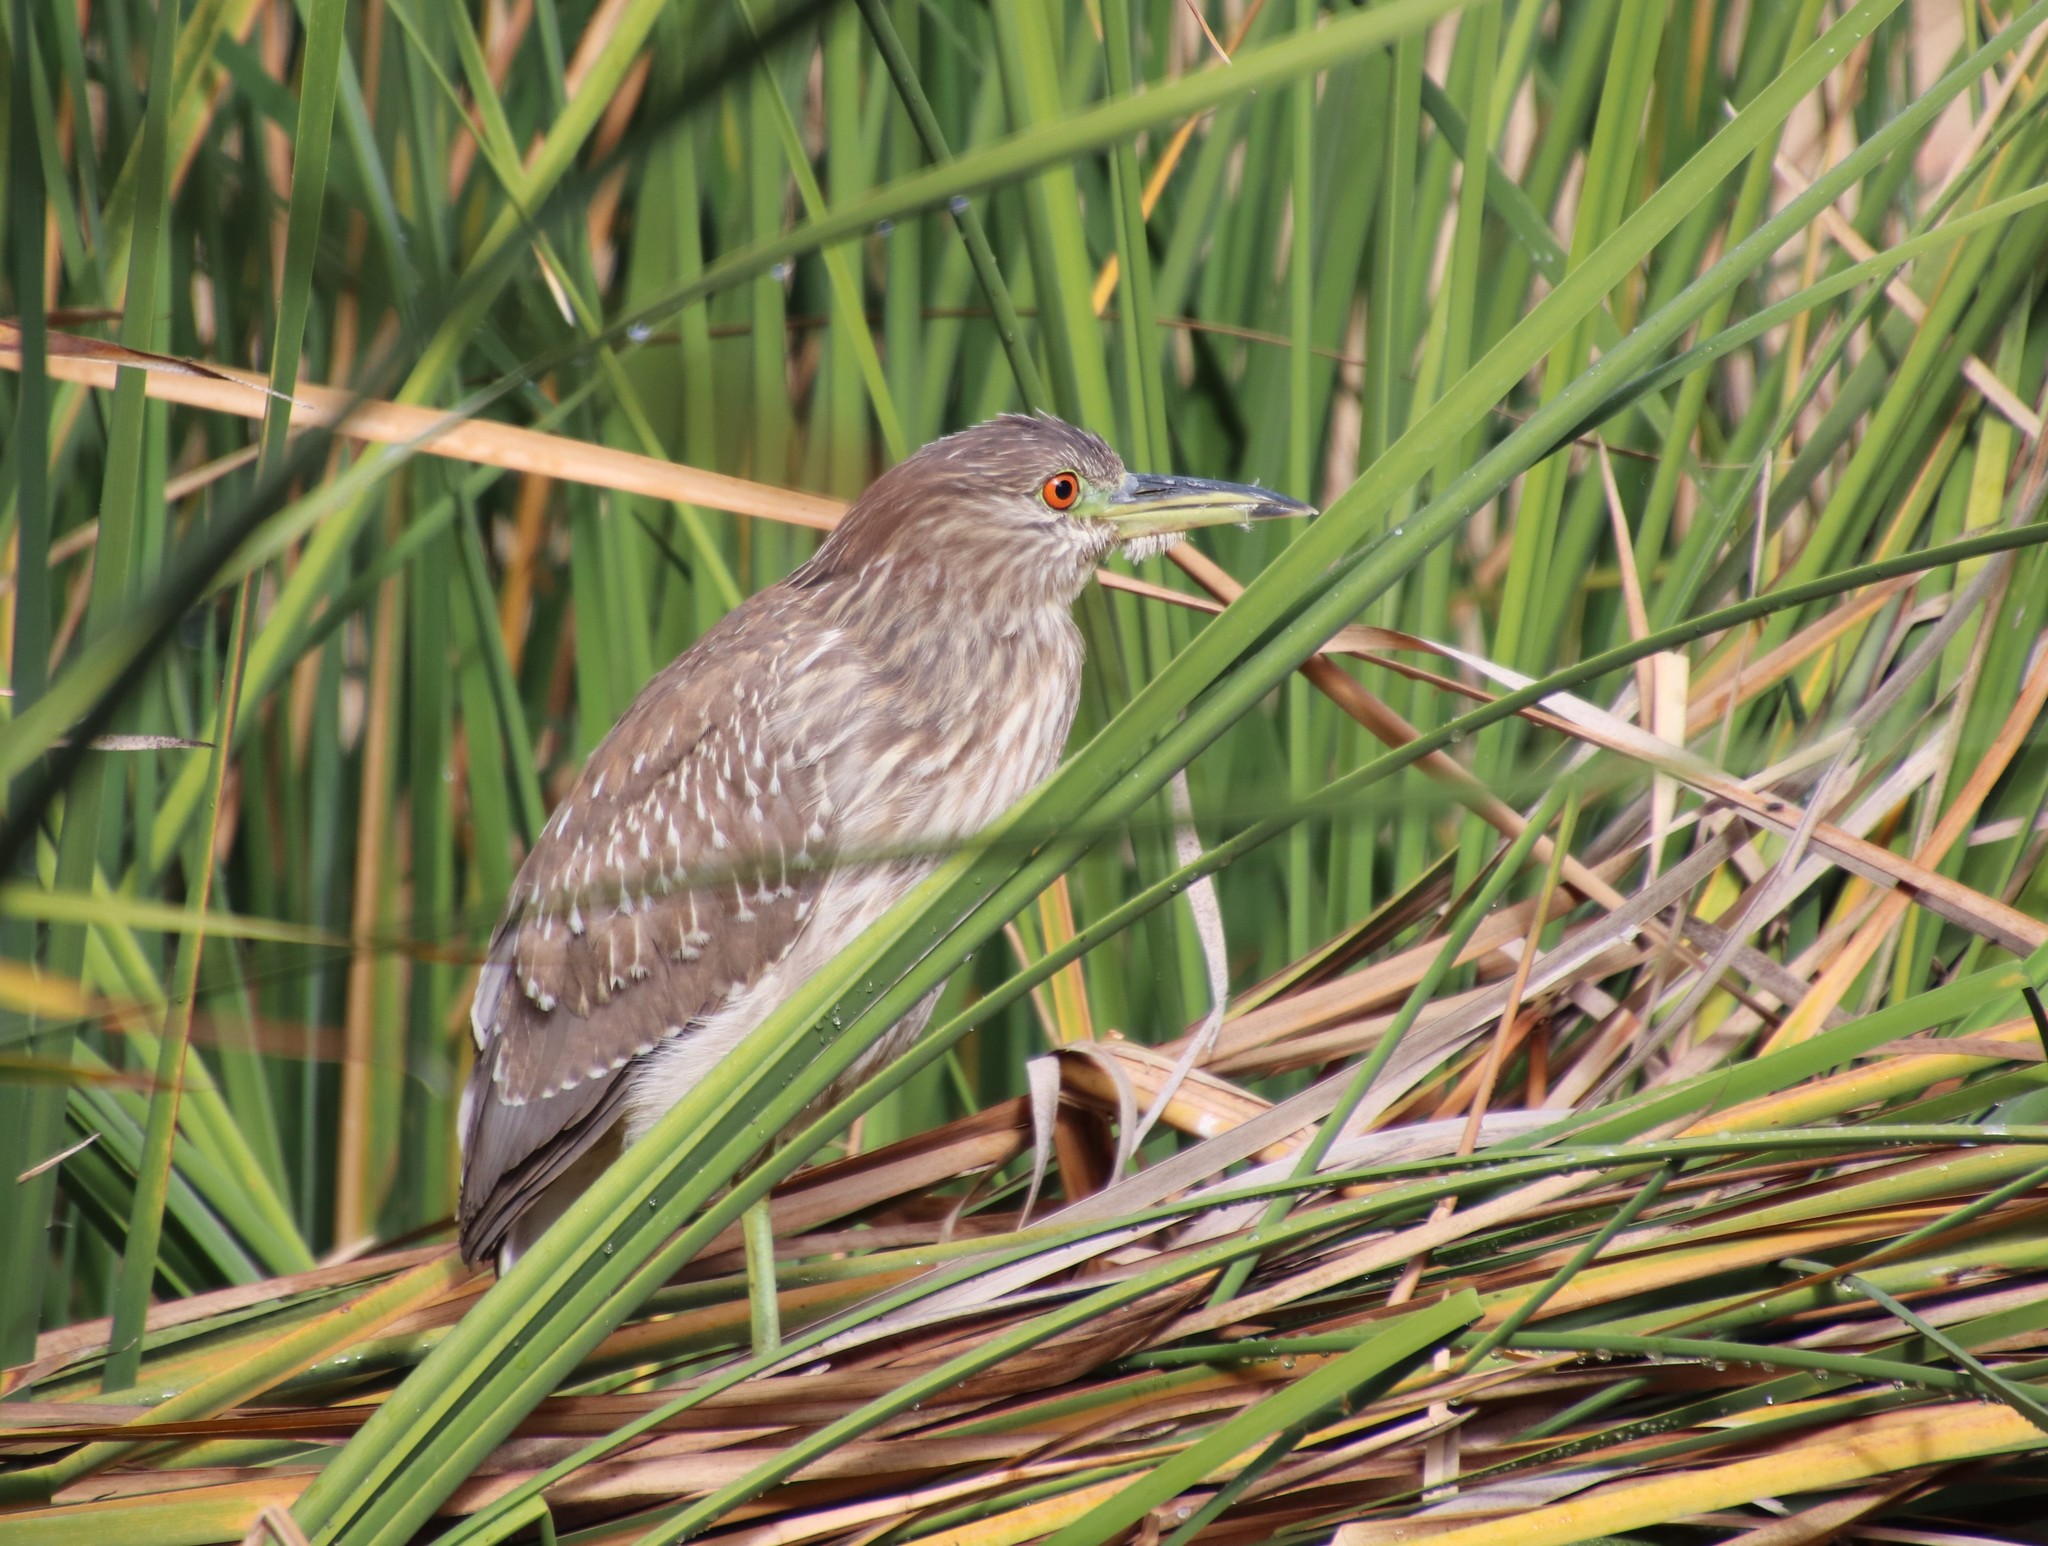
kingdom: Animalia
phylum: Chordata
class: Aves
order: Pelecaniformes
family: Ardeidae
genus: Nycticorax
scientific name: Nycticorax nycticorax
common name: Black-crowned night heron
